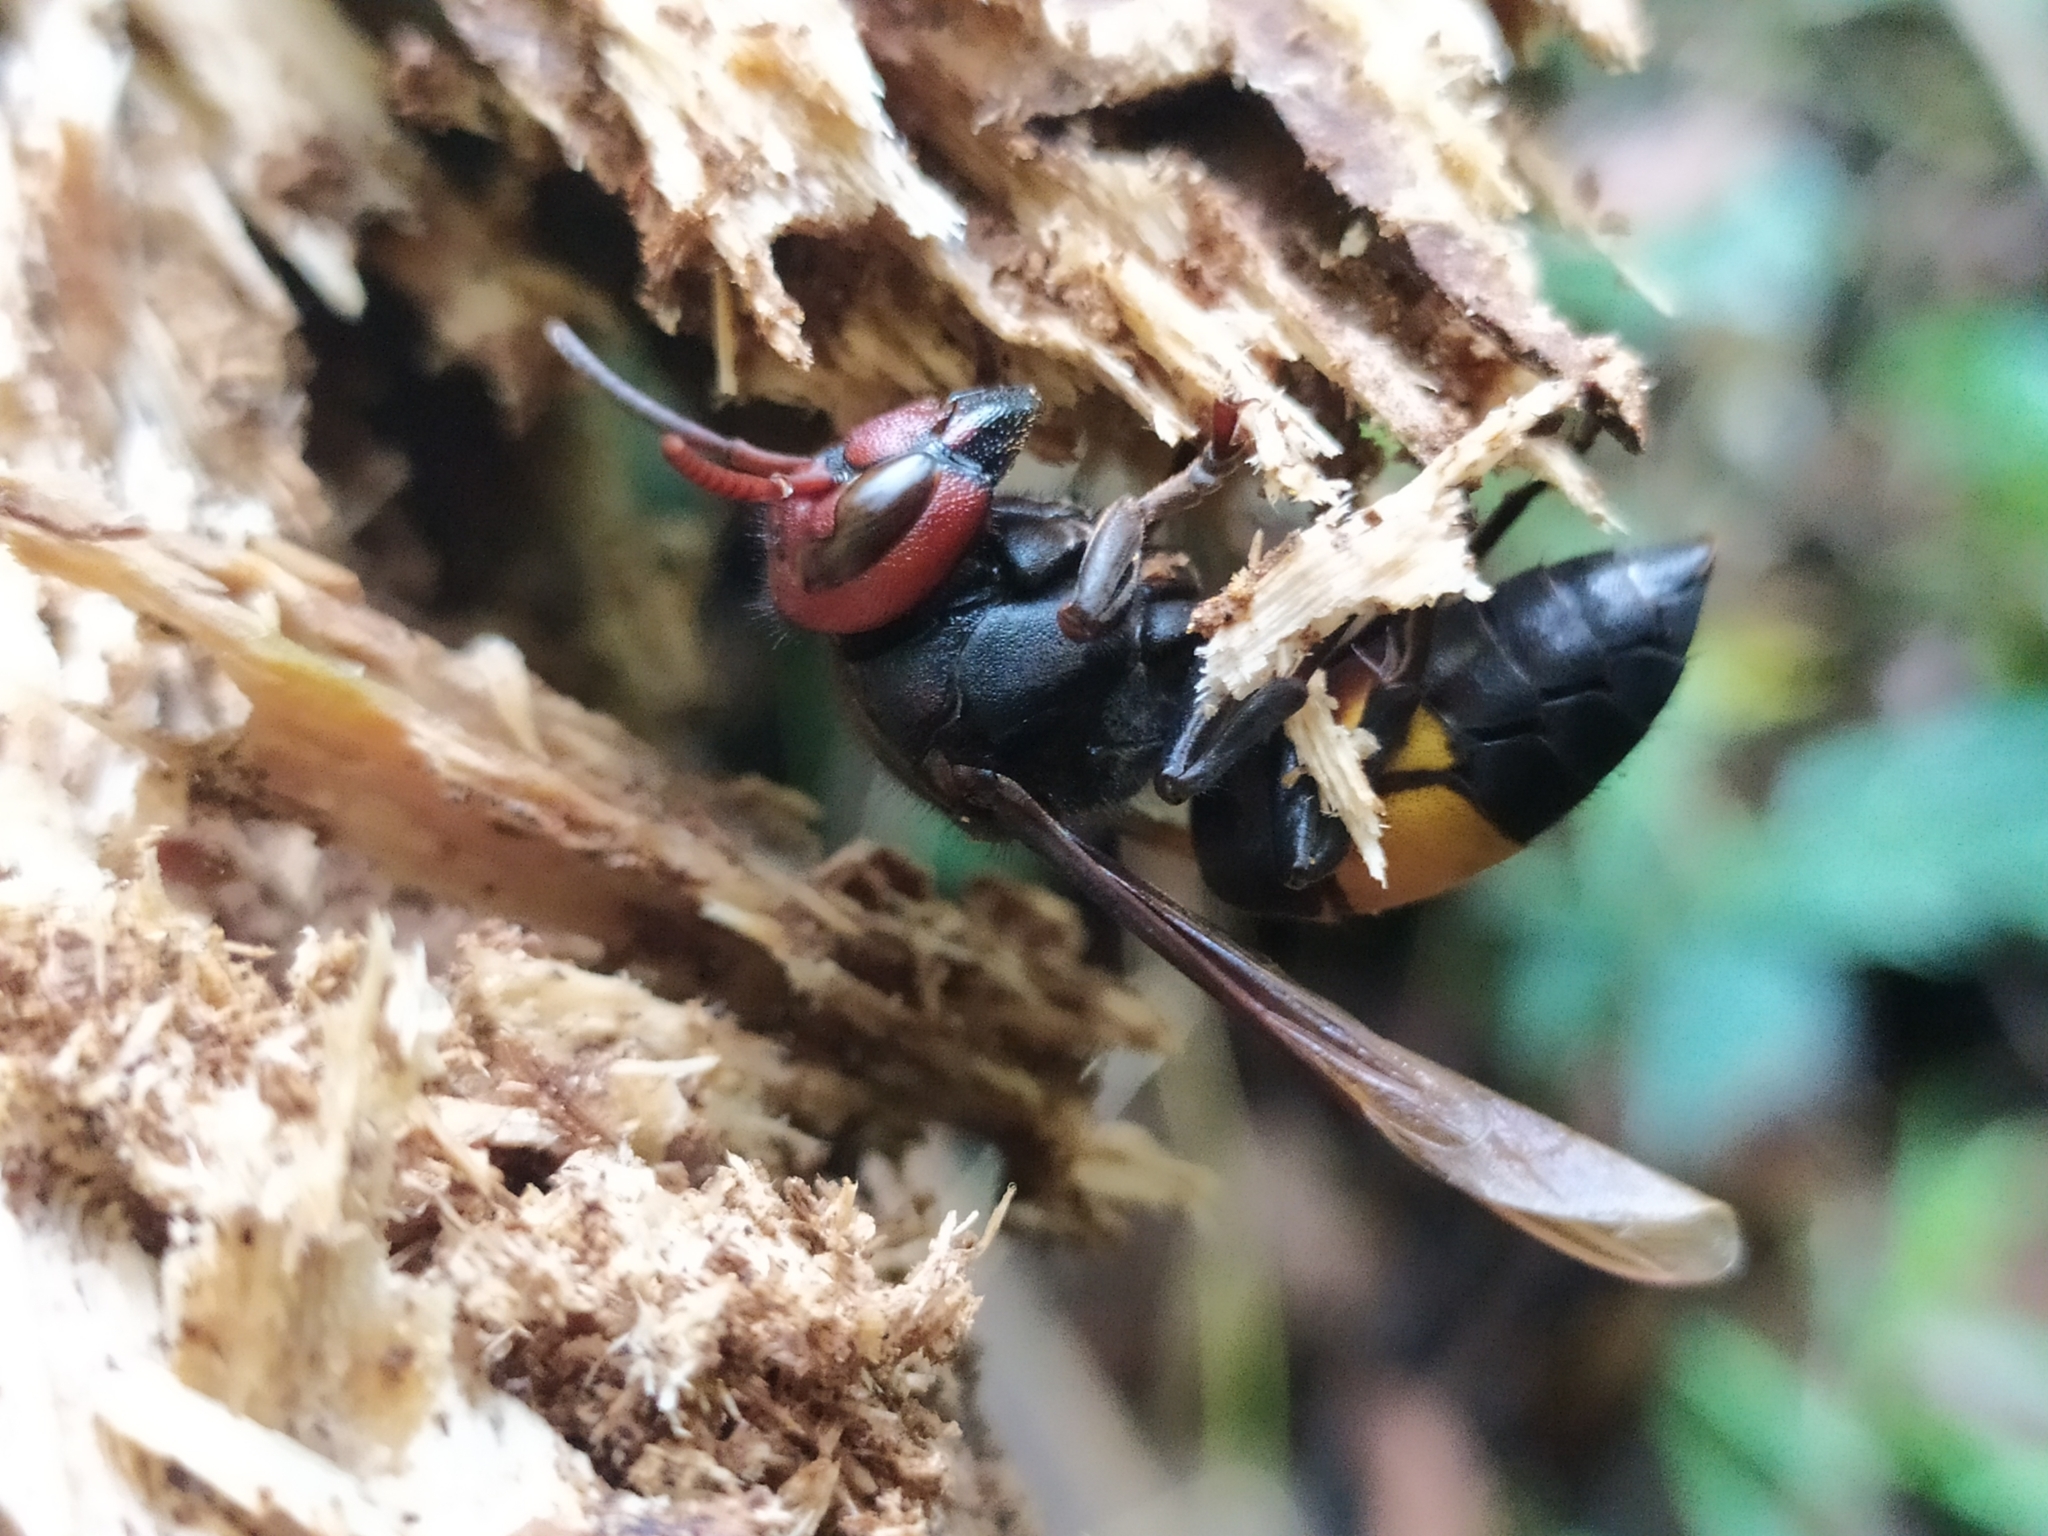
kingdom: Animalia
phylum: Arthropoda
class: Insecta
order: Hymenoptera
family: Vespidae
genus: Vespa
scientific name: Vespa affinis
